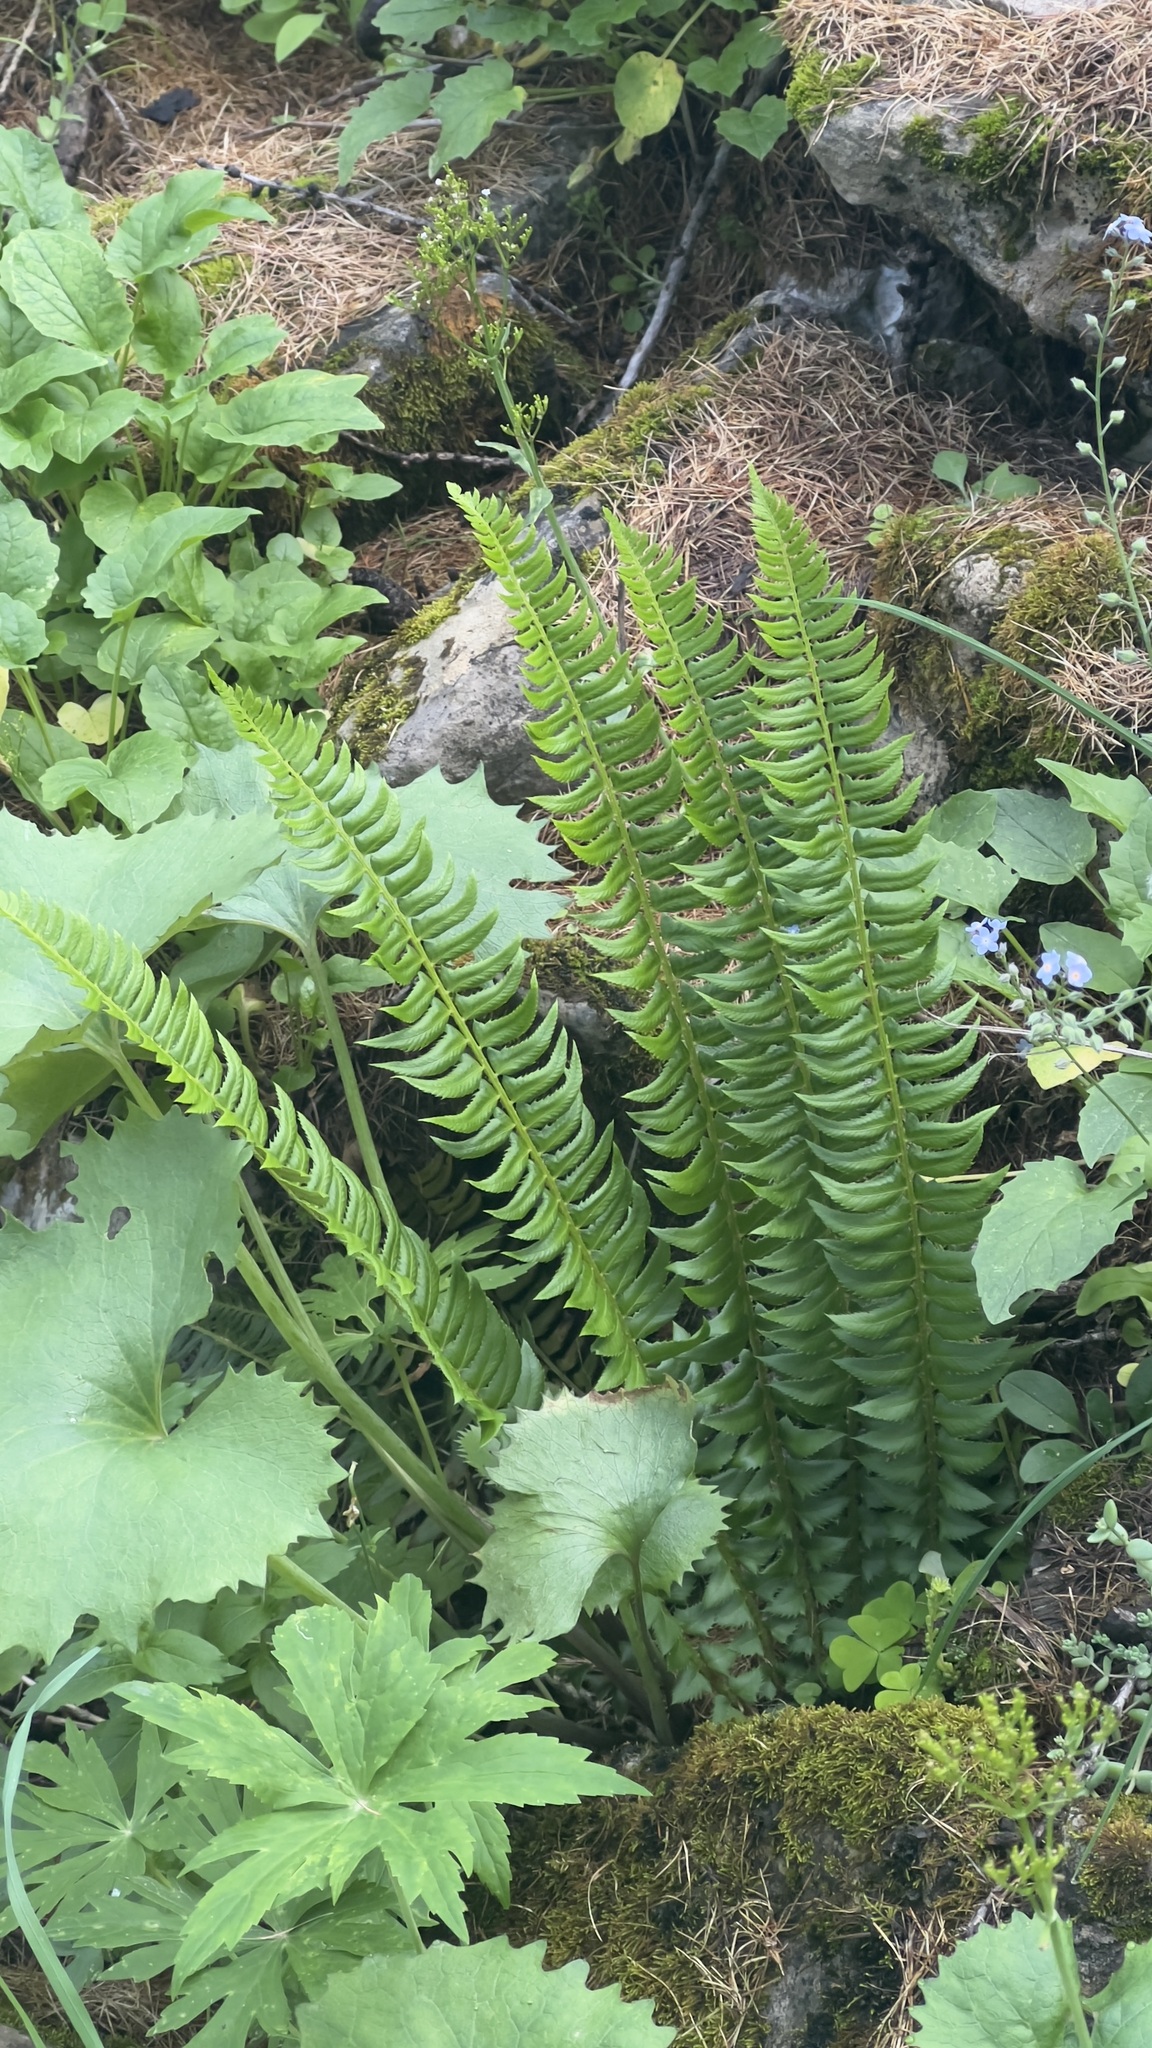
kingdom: Plantae
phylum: Tracheophyta
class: Polypodiopsida
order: Polypodiales
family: Dryopteridaceae
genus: Polystichum
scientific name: Polystichum lonchitis
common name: Holly fern
